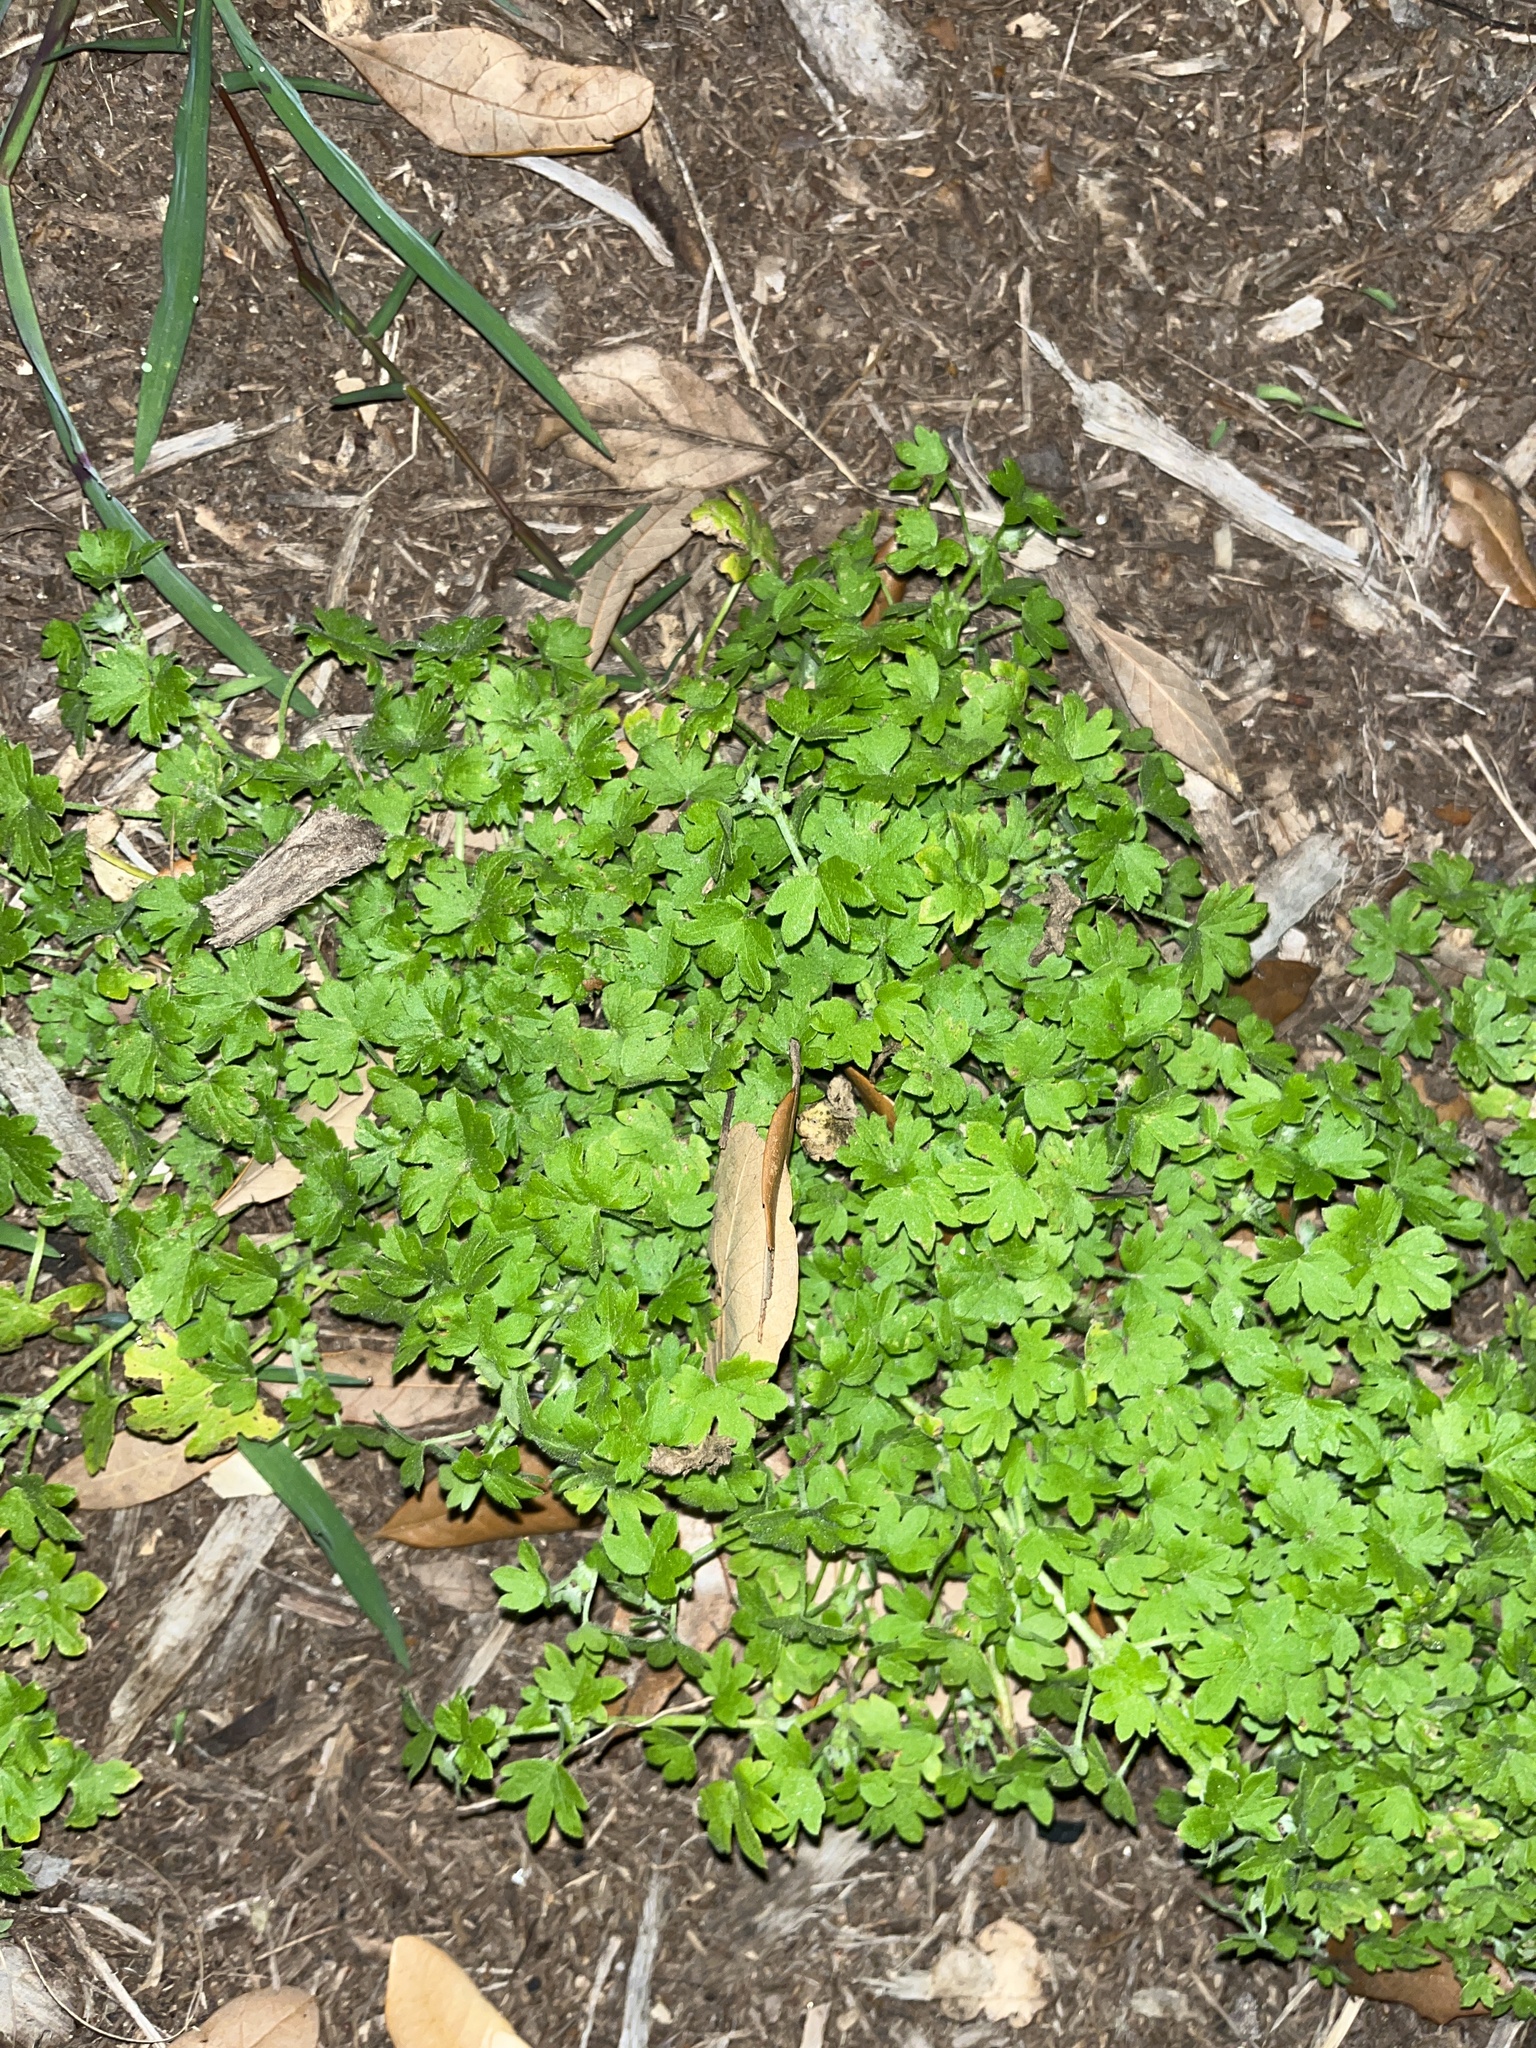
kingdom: Plantae
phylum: Tracheophyta
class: Magnoliopsida
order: Apiales
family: Apiaceae
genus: Bowlesia
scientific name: Bowlesia incana
